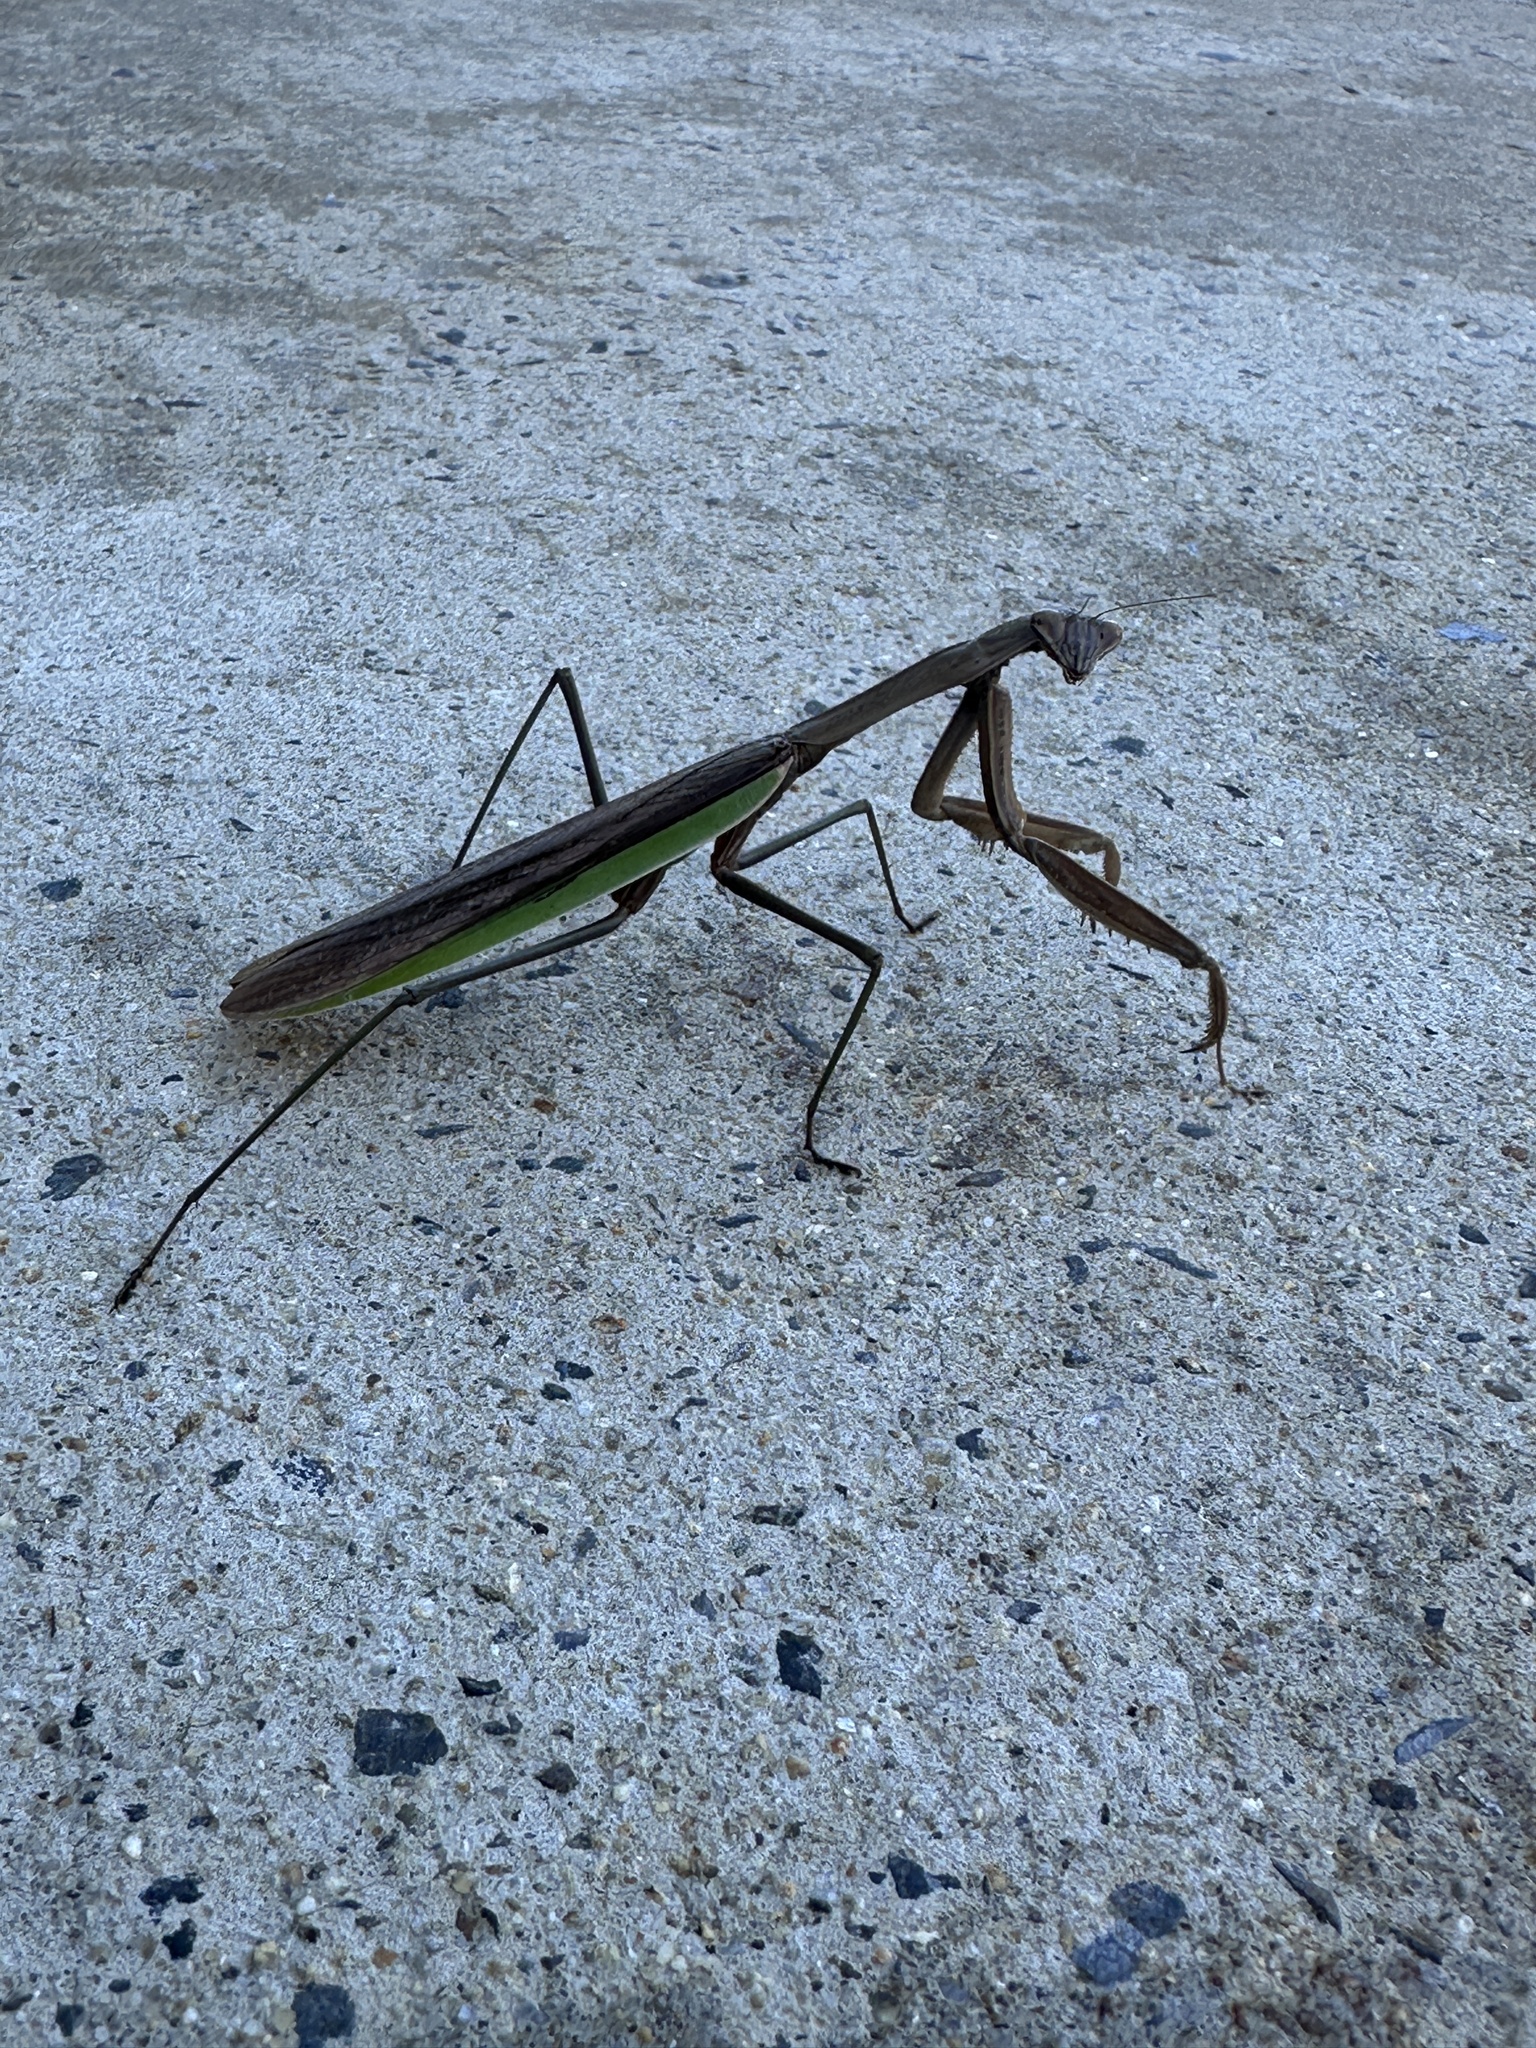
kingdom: Animalia
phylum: Arthropoda
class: Insecta
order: Mantodea
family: Mantidae
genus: Tenodera
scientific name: Tenodera sinensis
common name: Chinese mantis
